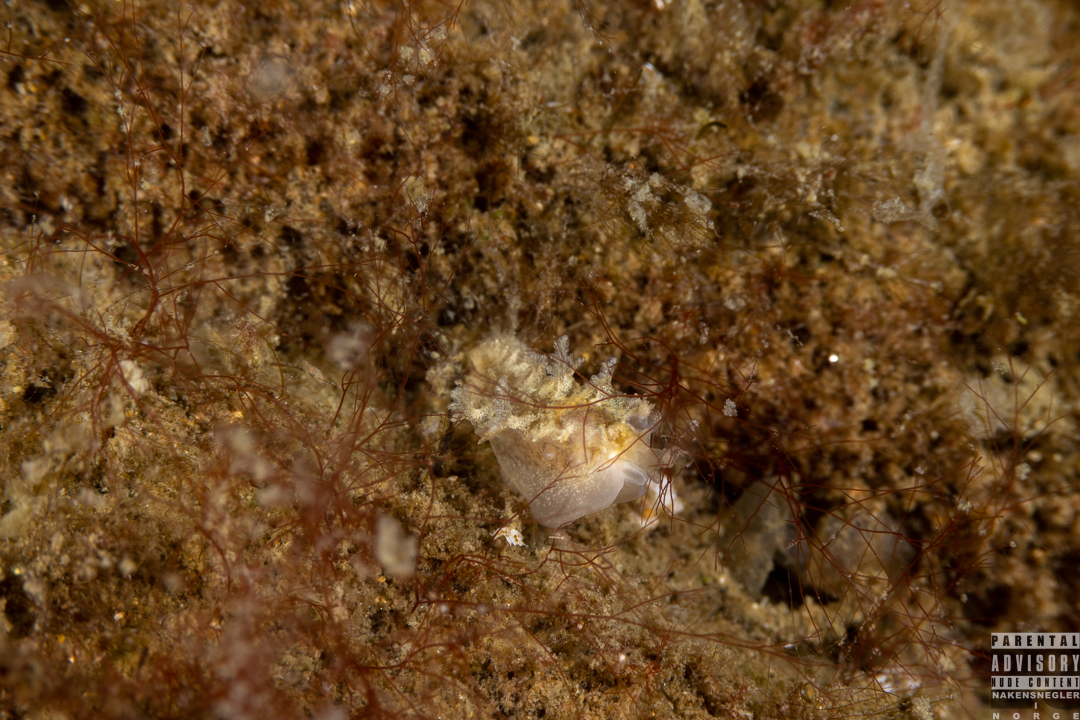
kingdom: Animalia
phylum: Mollusca
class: Gastropoda
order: Nudibranchia
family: Tritoniidae
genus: Duvaucelia
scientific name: Duvaucelia plebeia
